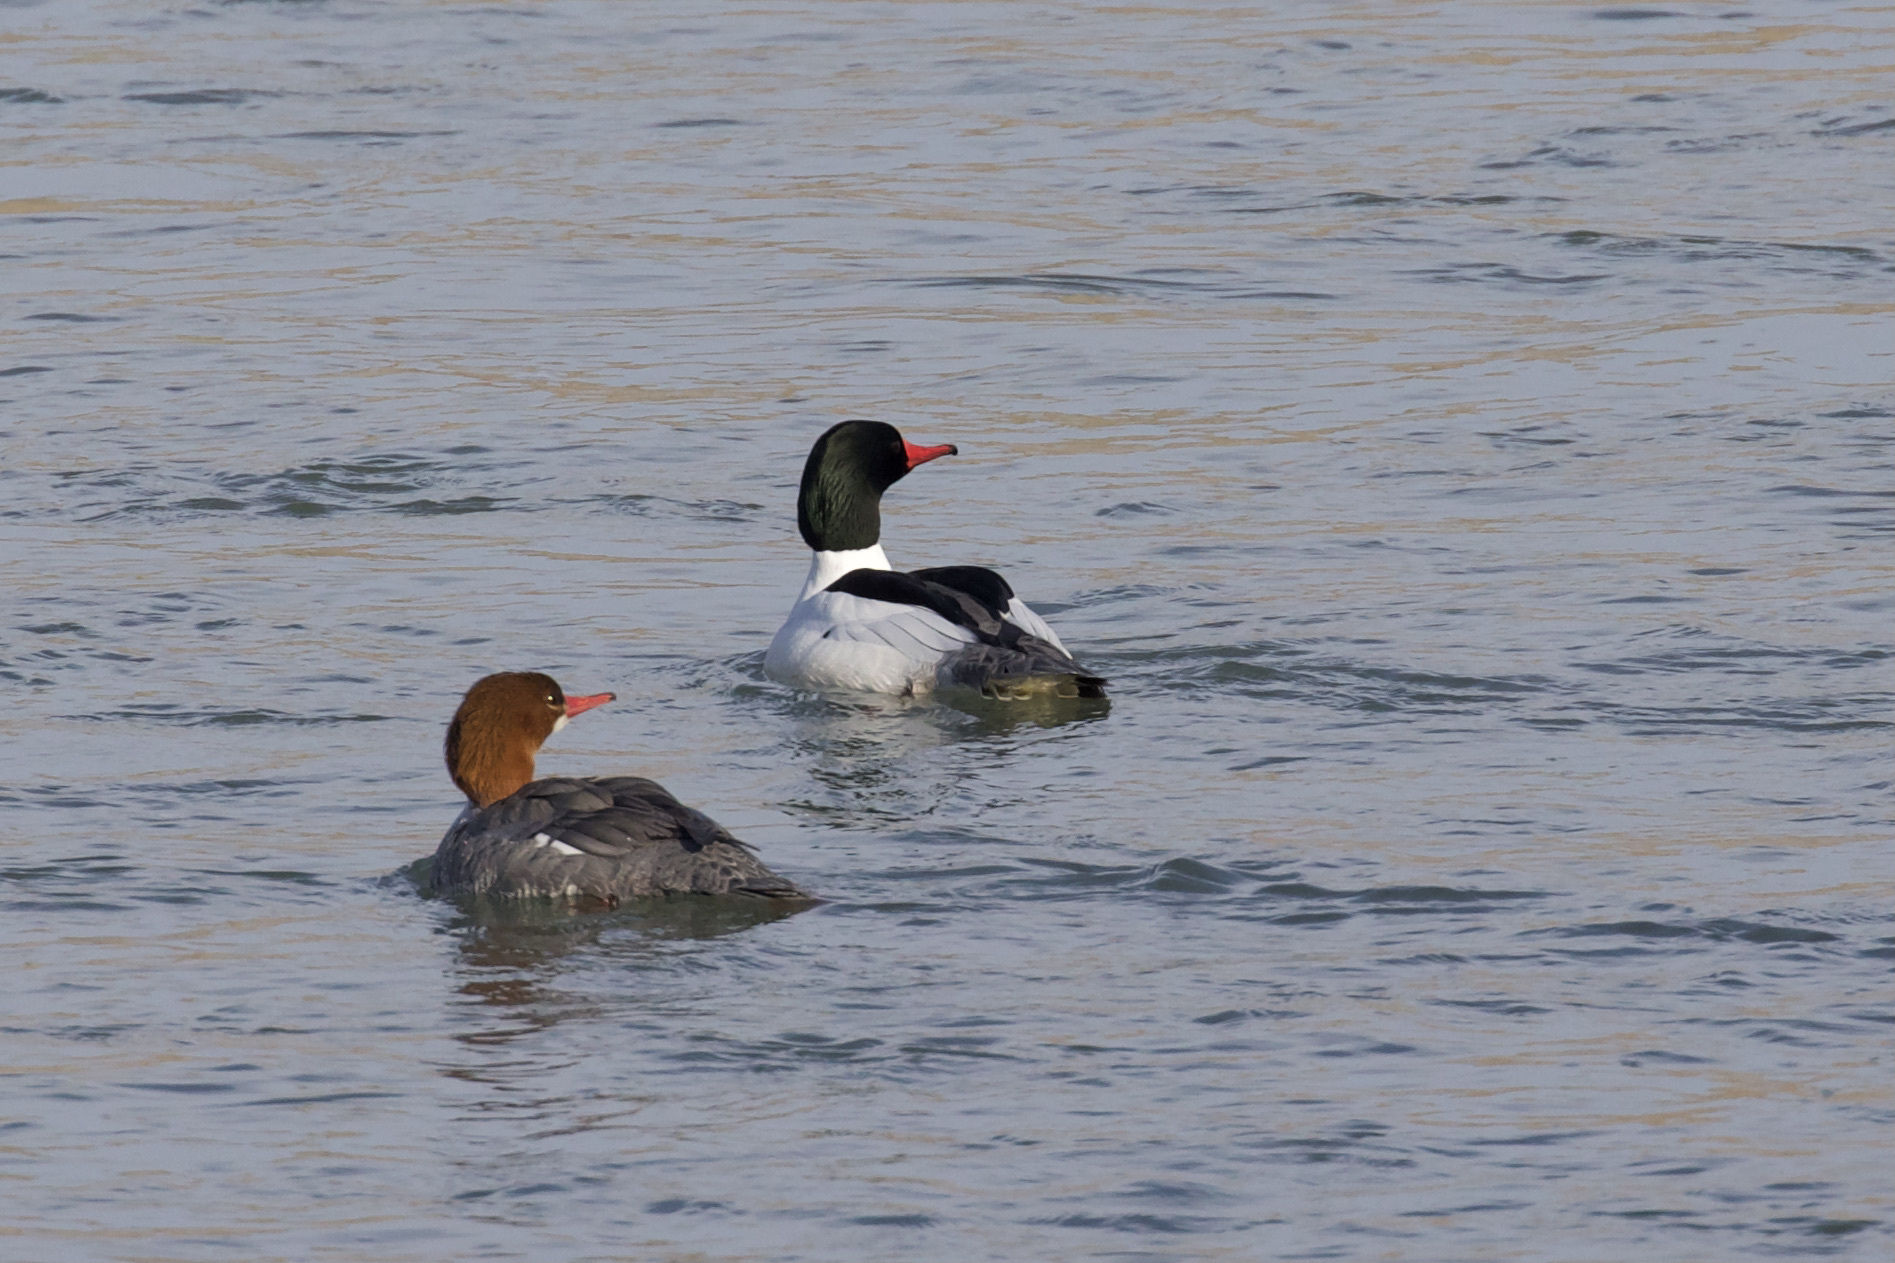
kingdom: Animalia
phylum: Chordata
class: Aves
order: Anseriformes
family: Anatidae
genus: Mergus
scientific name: Mergus merganser
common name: Common merganser
